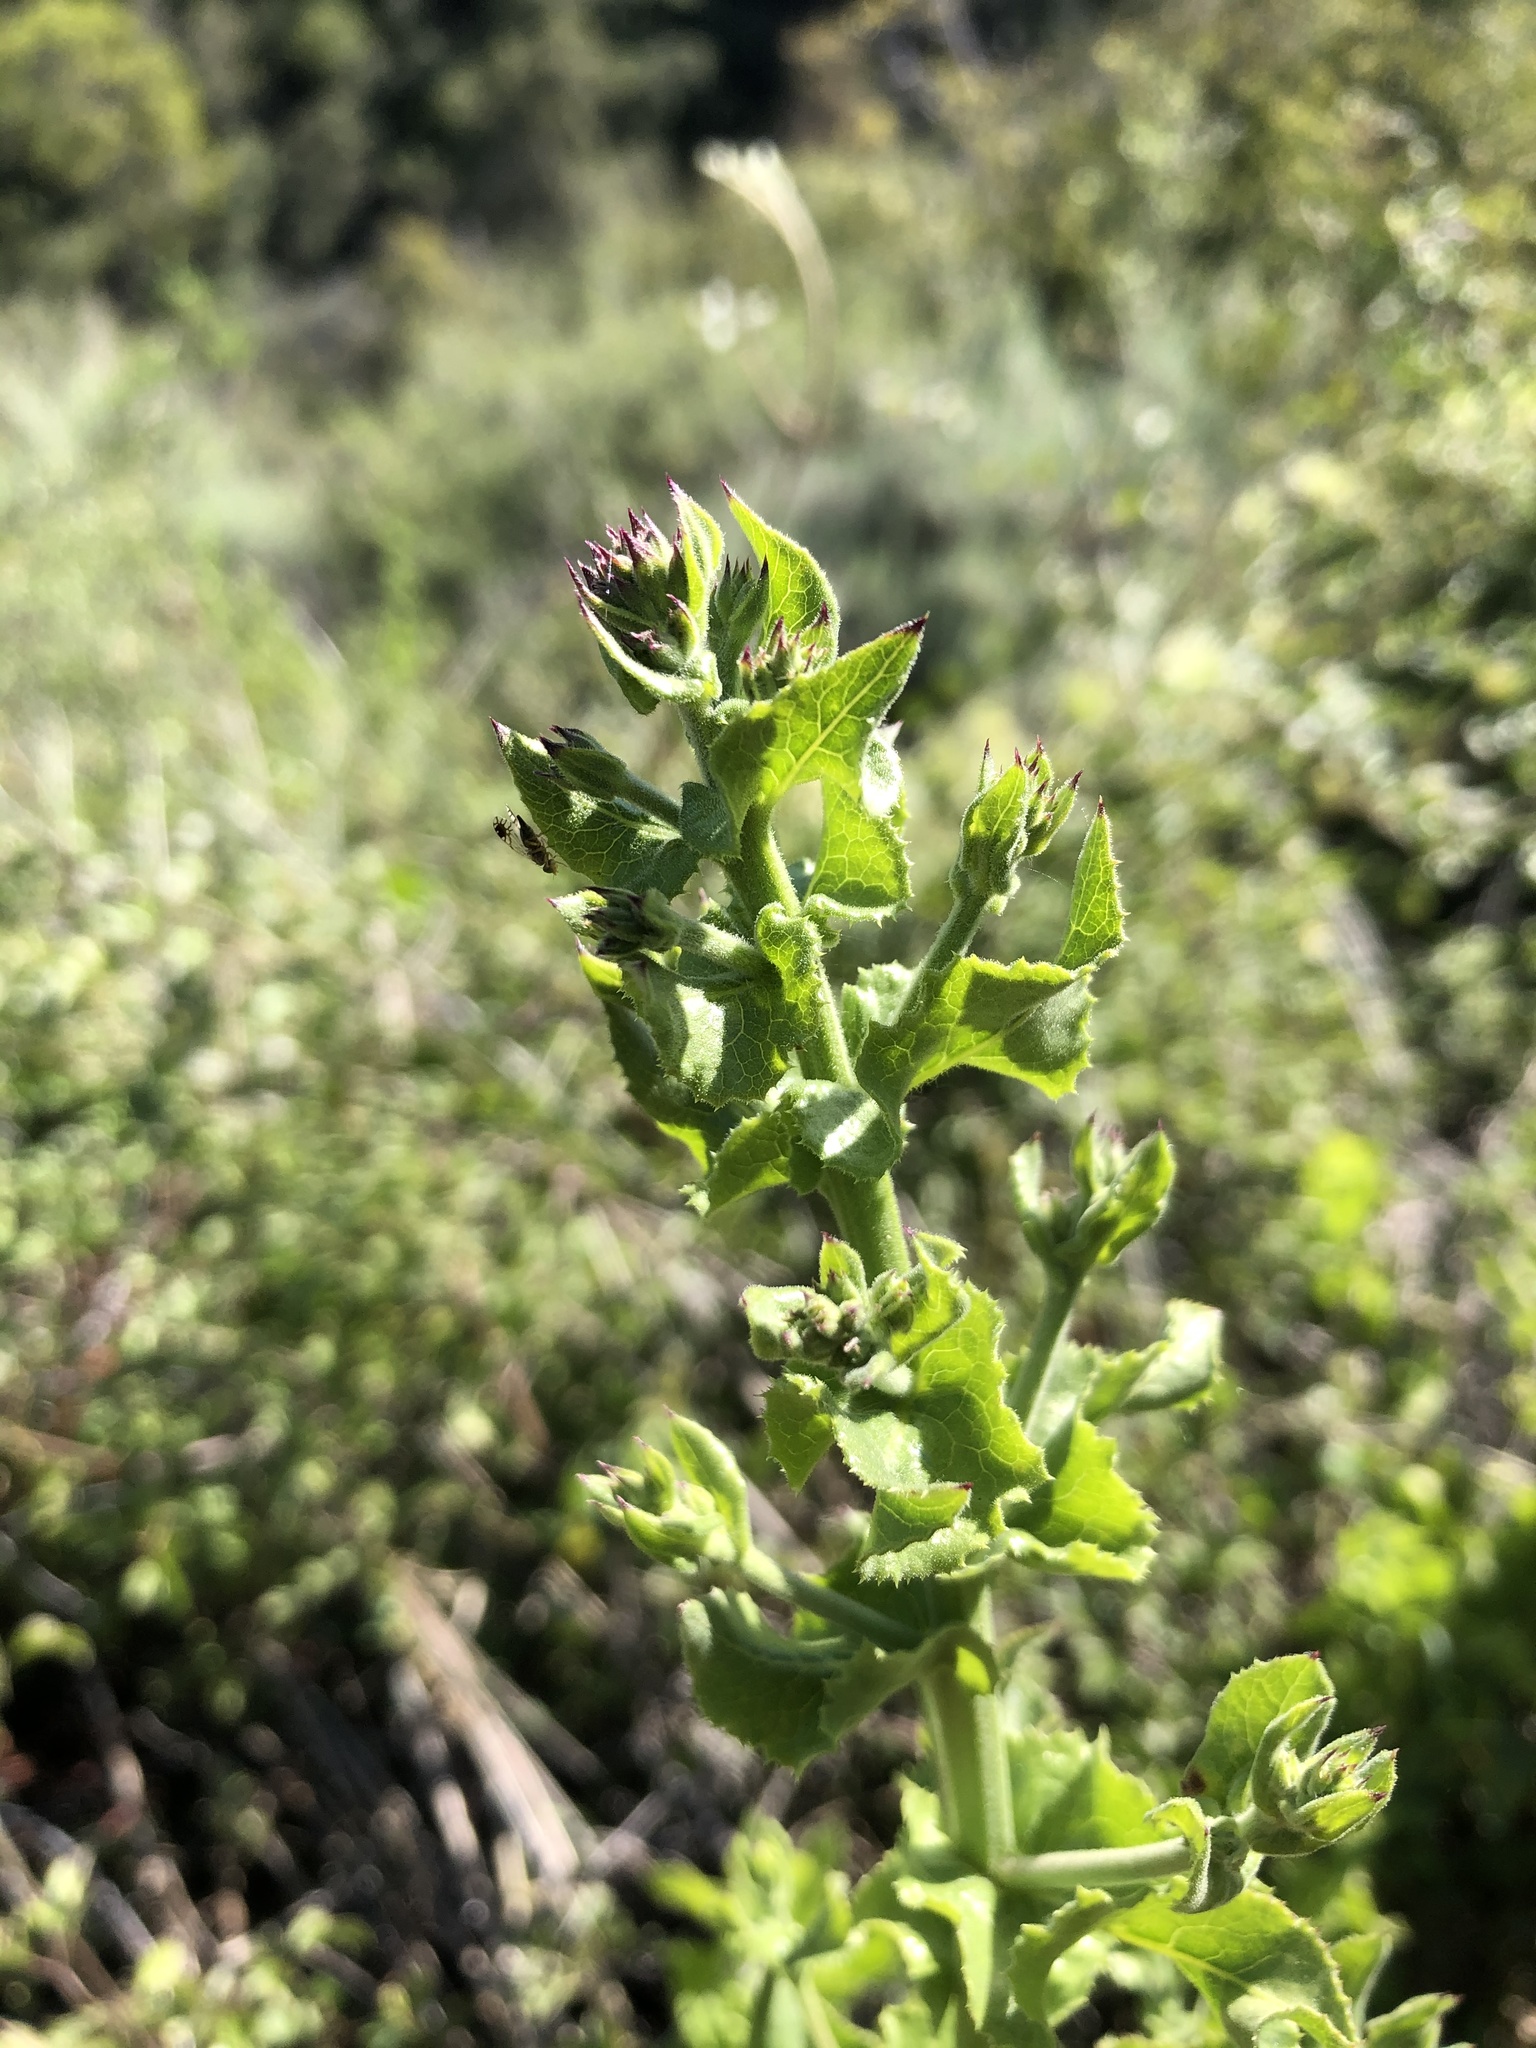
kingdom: Plantae
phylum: Tracheophyta
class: Magnoliopsida
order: Asterales
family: Asteraceae
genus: Acourtia
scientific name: Acourtia microcephala
